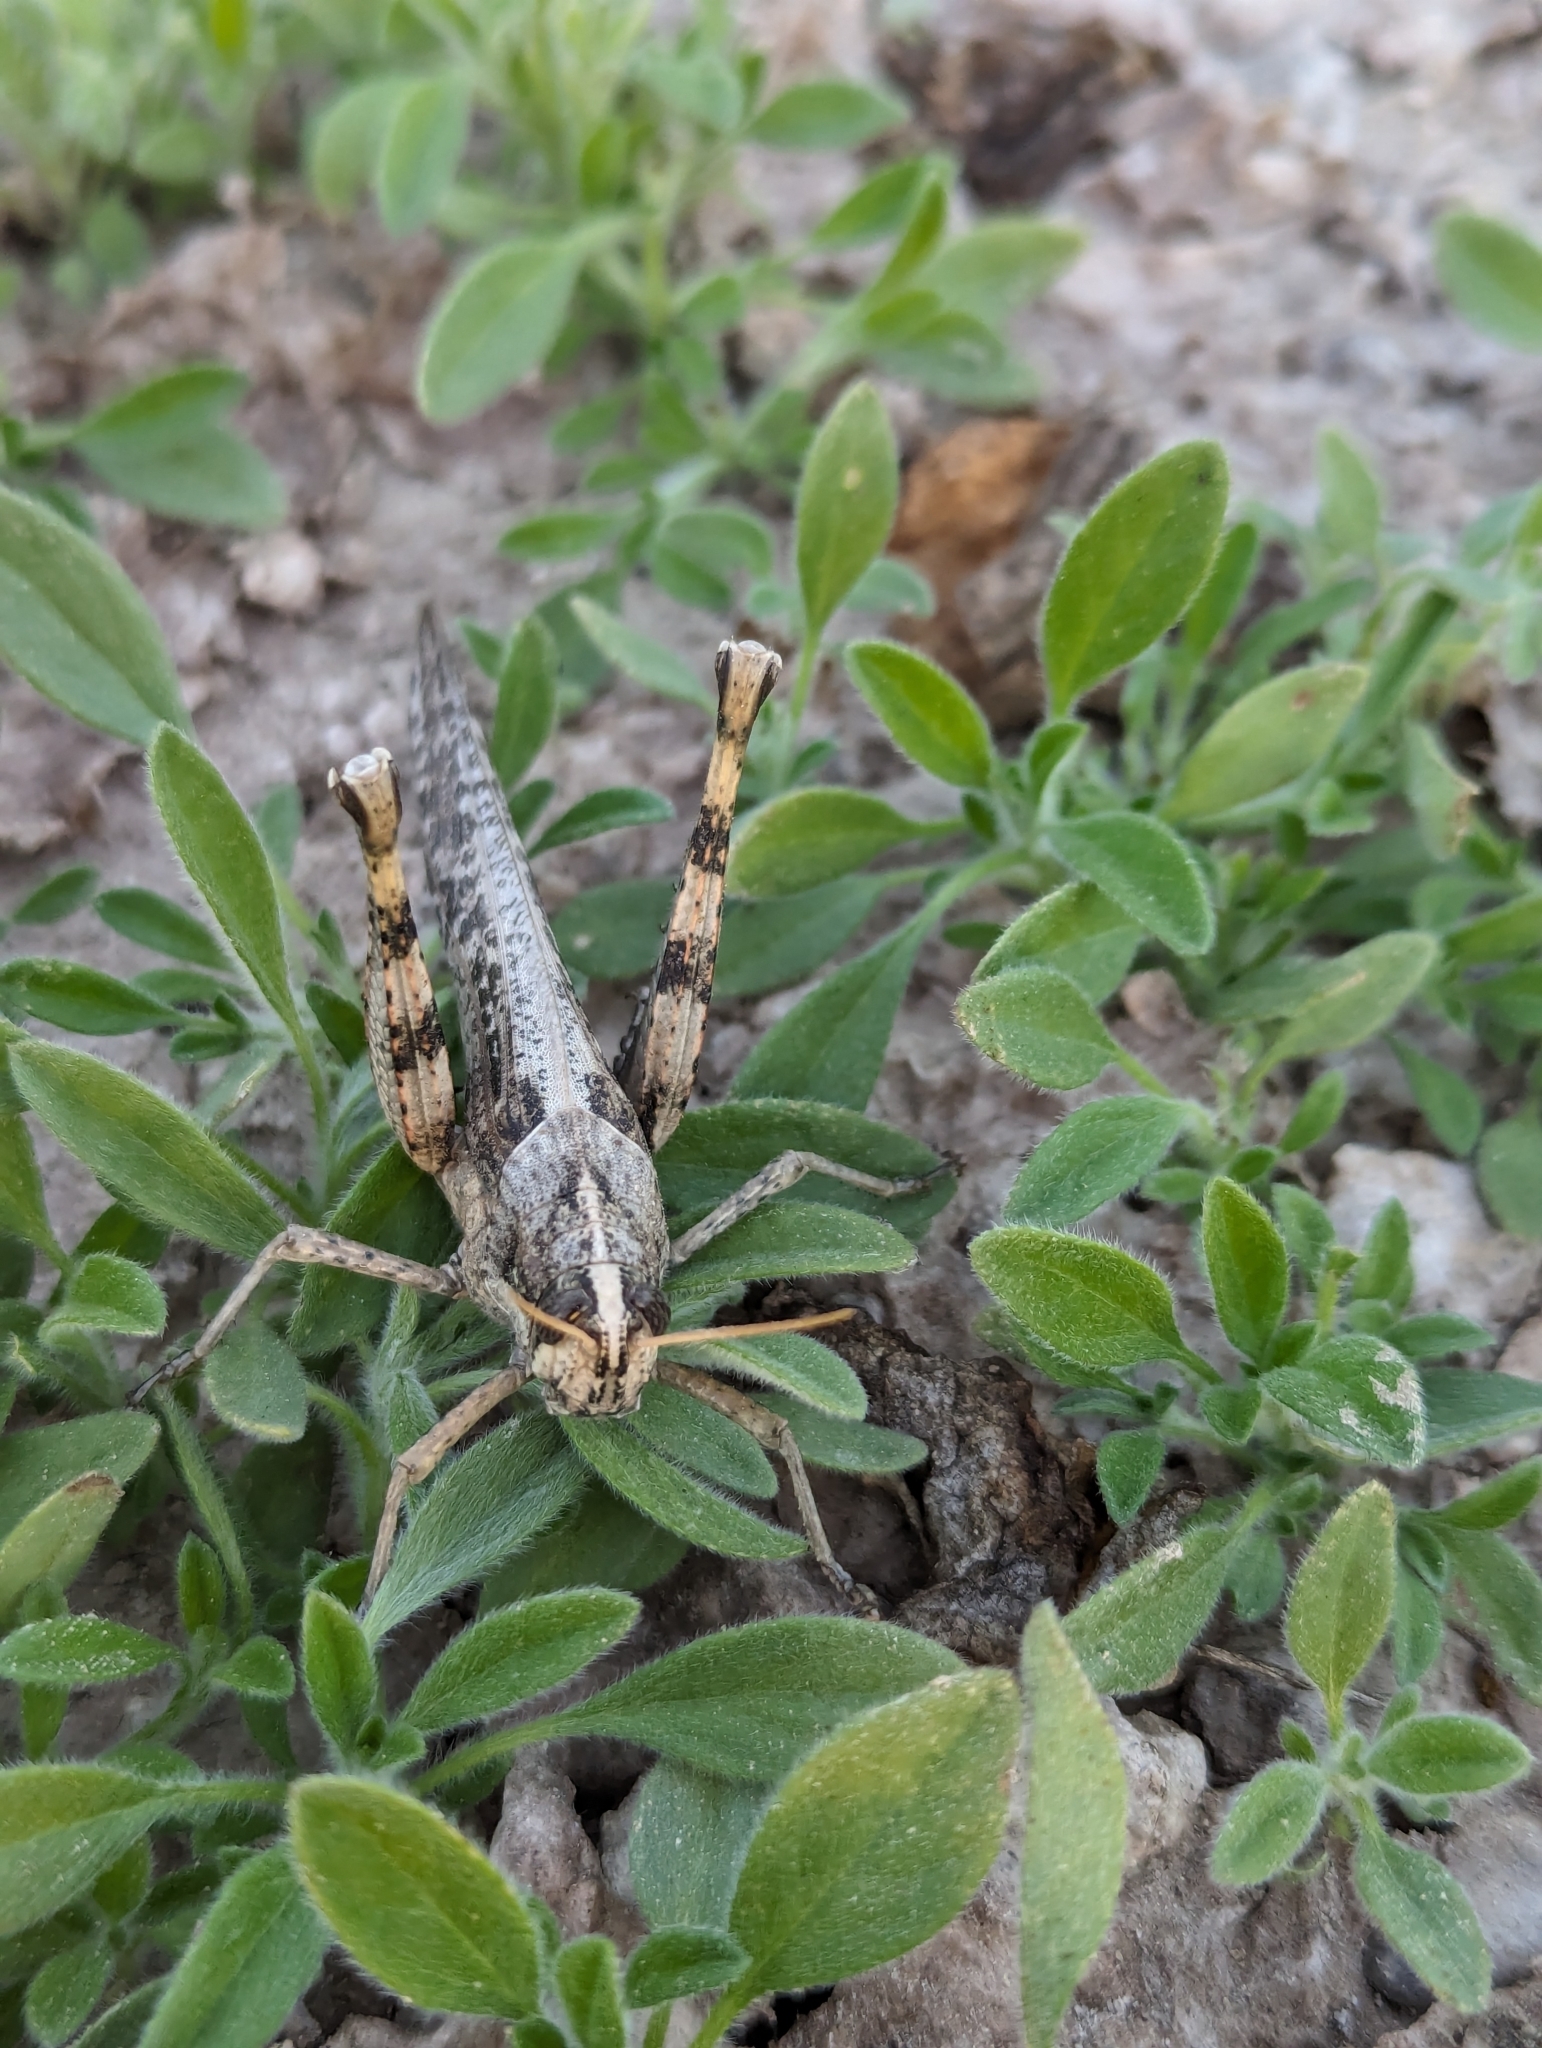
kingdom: Animalia
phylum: Arthropoda
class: Insecta
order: Orthoptera
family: Acrididae
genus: Schistocerca
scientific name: Schistocerca nitens
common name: Vagrant grasshopper
